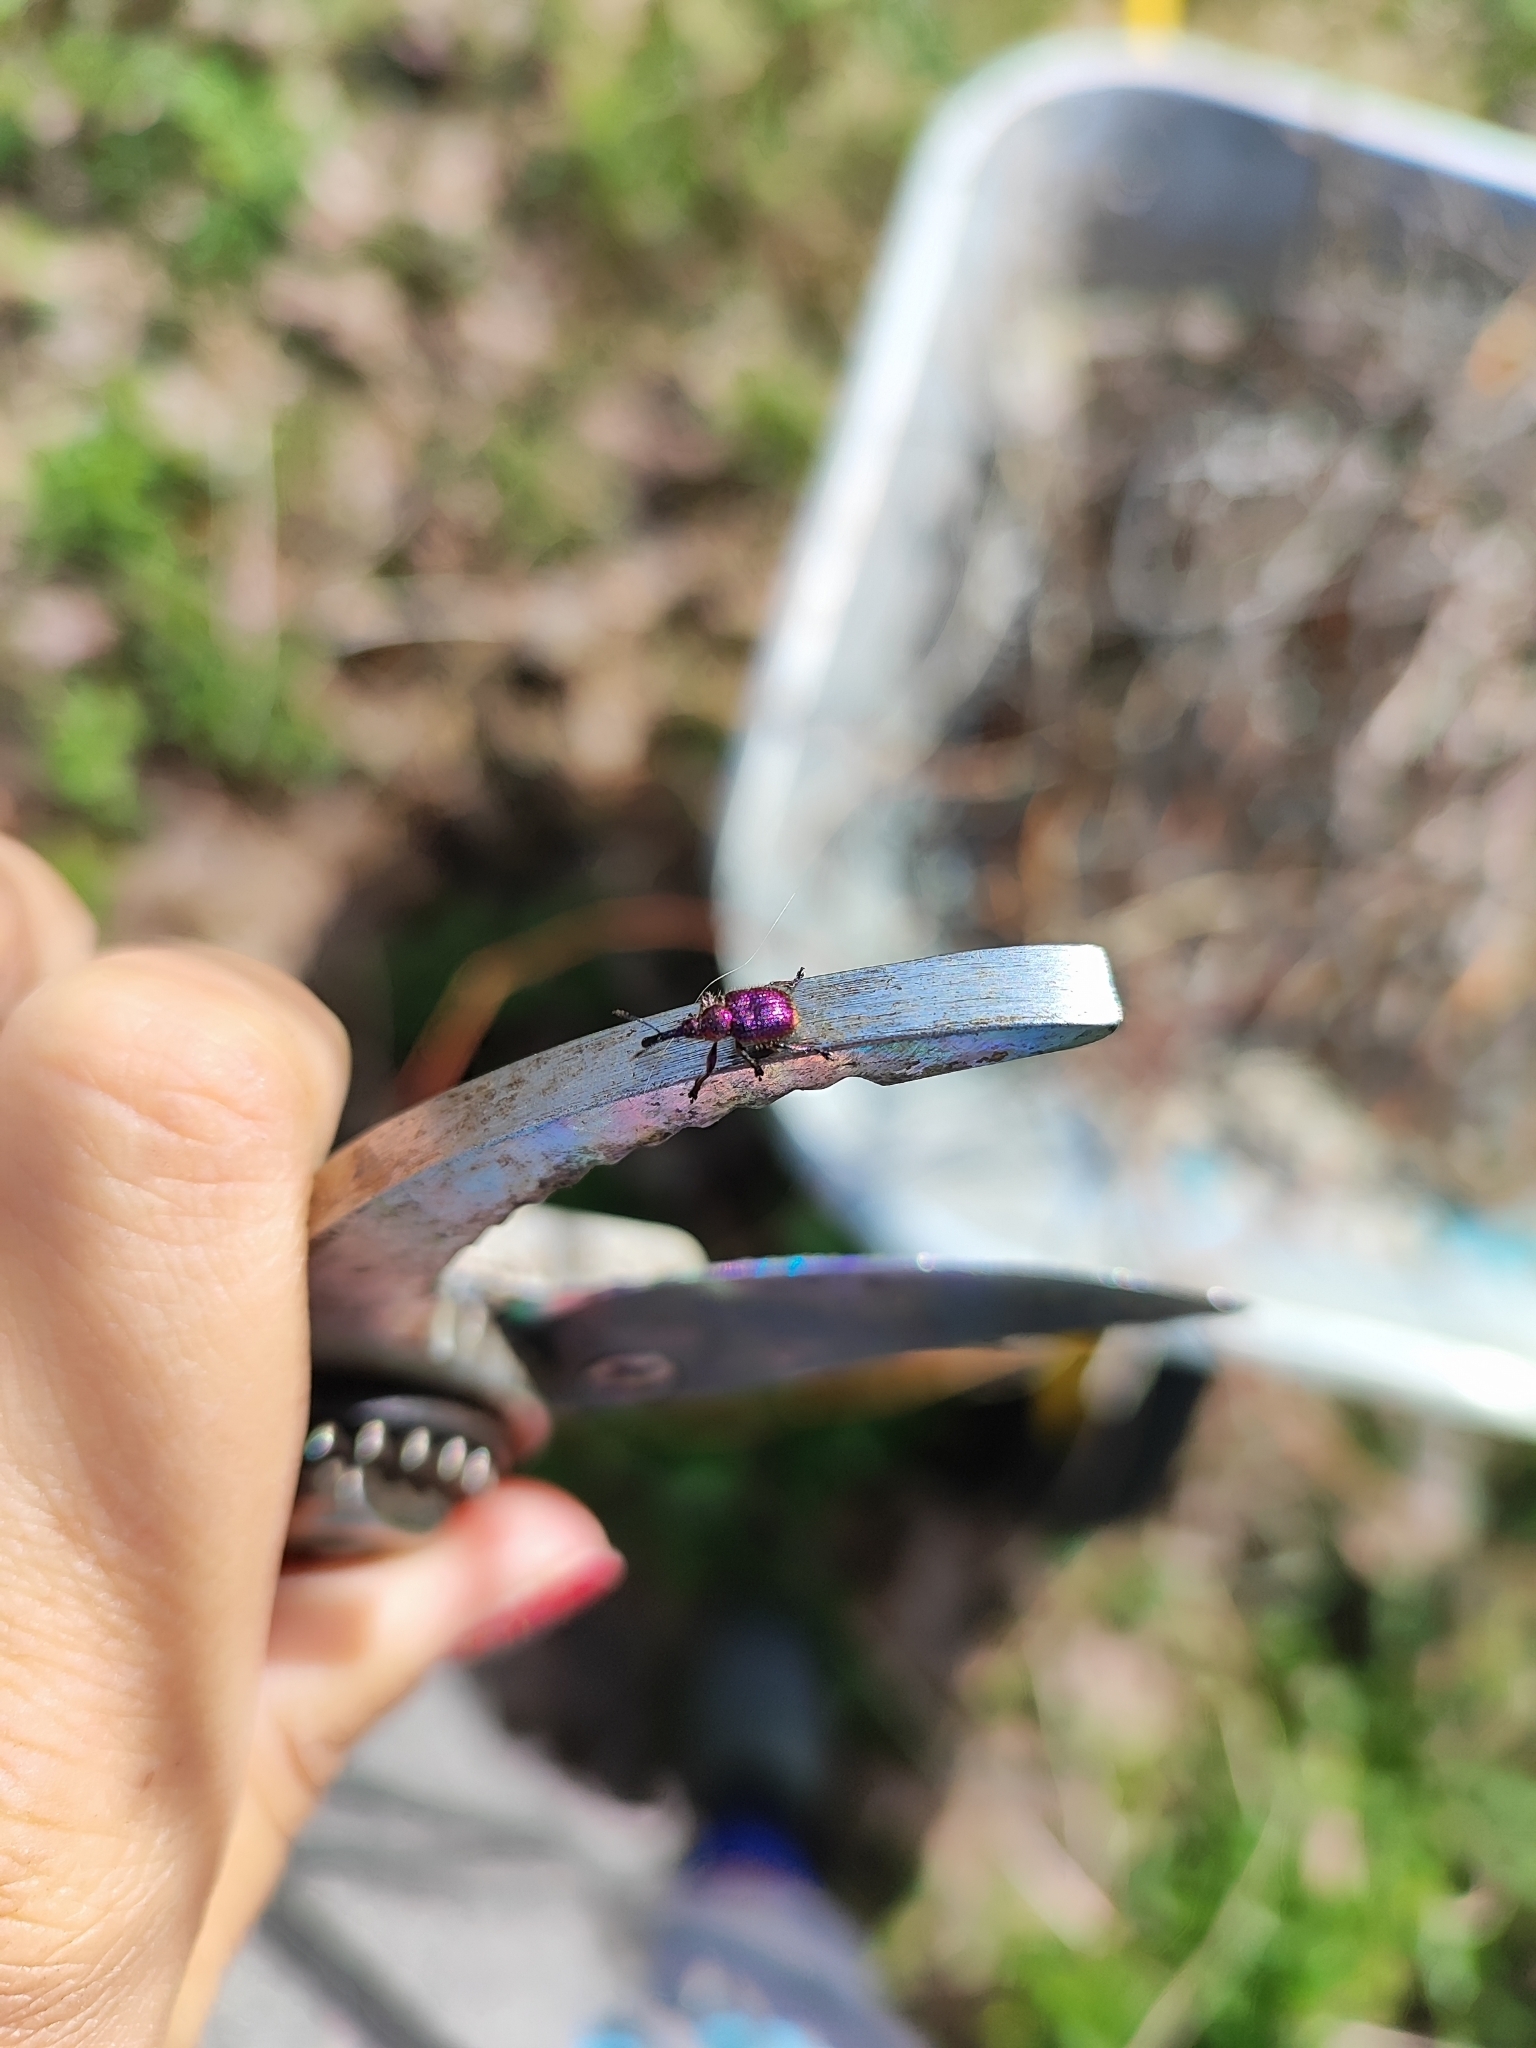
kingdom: Animalia
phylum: Arthropoda
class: Insecta
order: Coleoptera
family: Attelabidae
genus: Rhynchites
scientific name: Rhynchites bacchus
